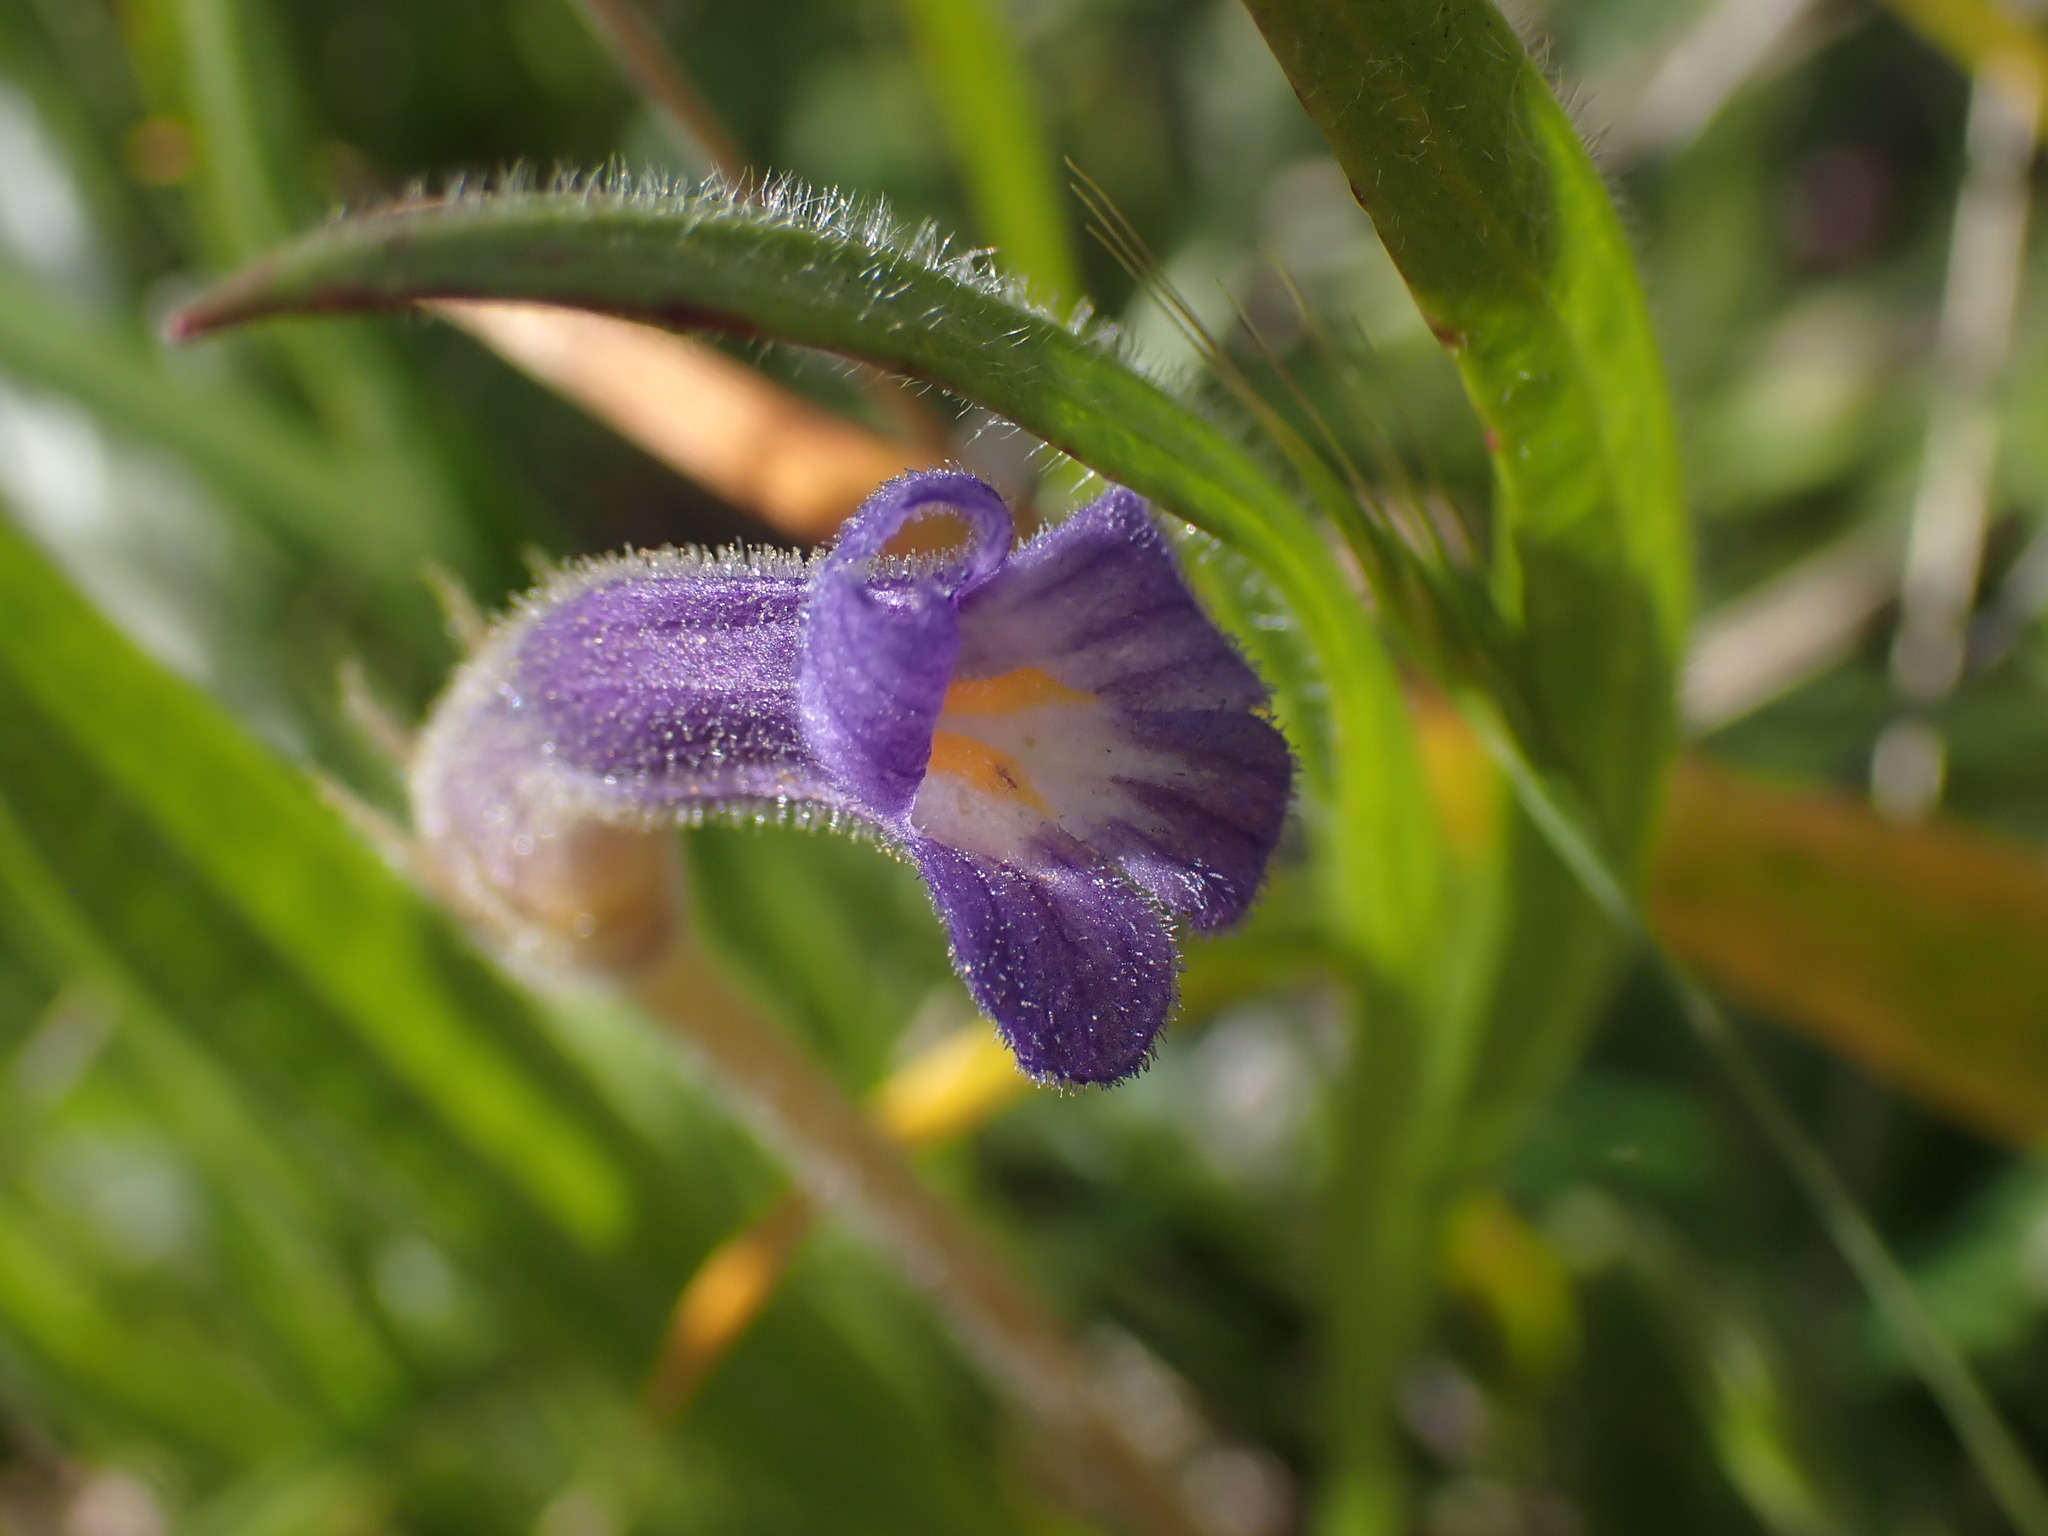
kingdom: Plantae
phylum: Tracheophyta
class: Magnoliopsida
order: Lamiales
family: Orobanchaceae
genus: Aphyllon
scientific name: Aphyllon uniflorum
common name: One-flowered broomrape
